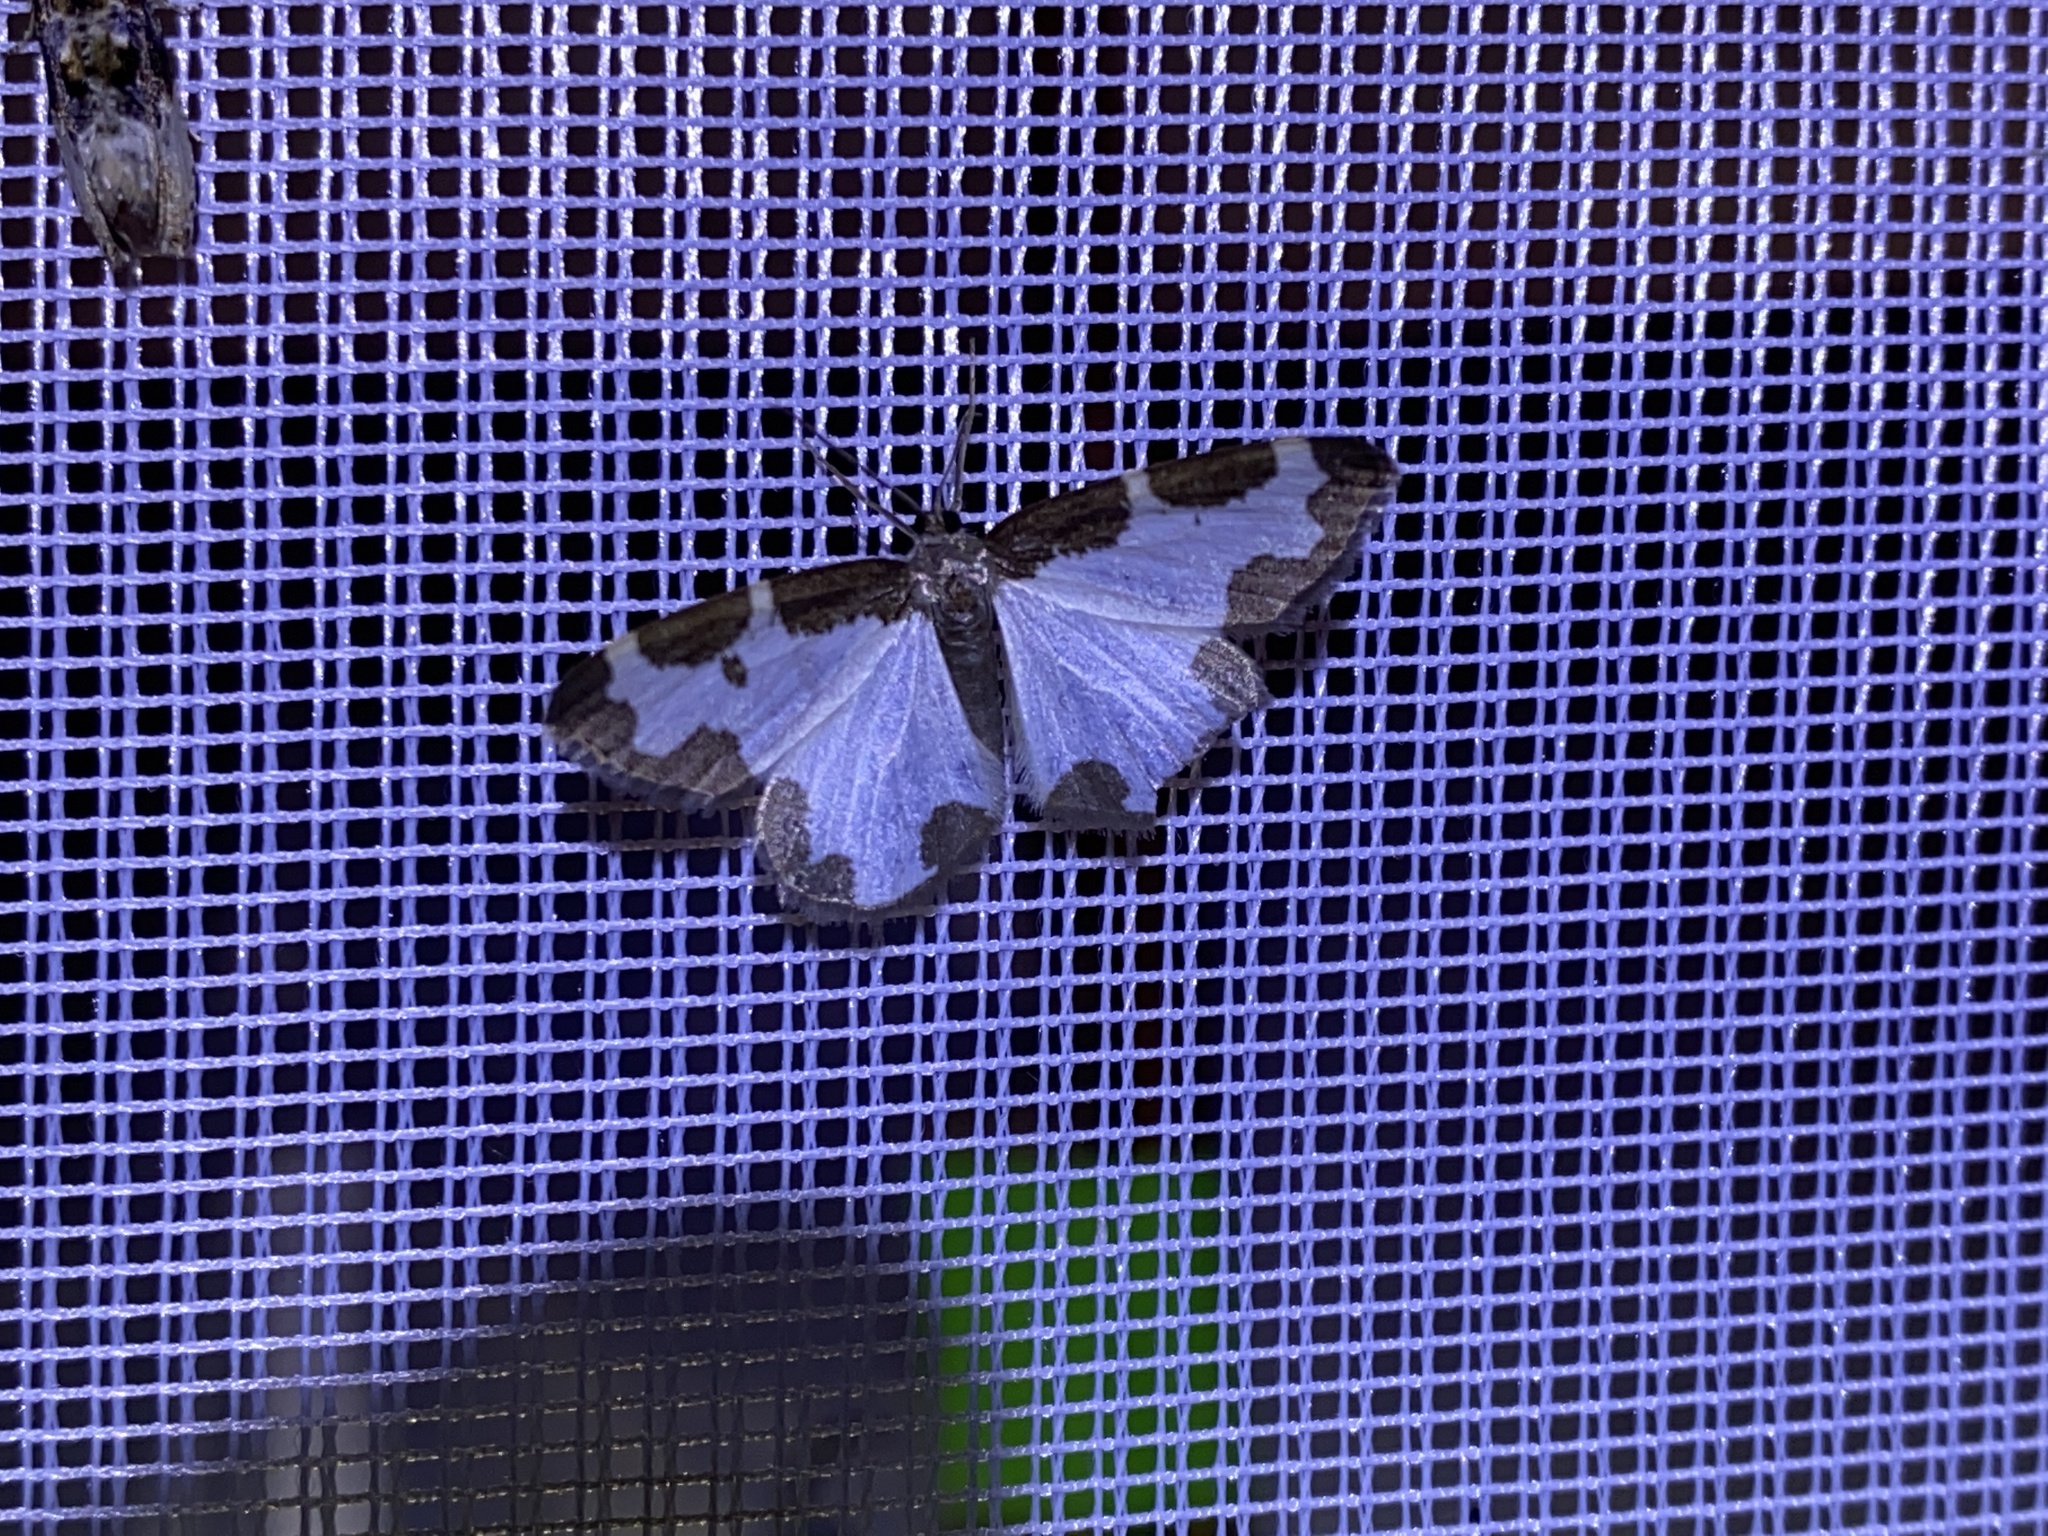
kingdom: Animalia
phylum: Arthropoda
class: Insecta
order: Lepidoptera
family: Geometridae
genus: Lomaspilis
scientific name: Lomaspilis marginata
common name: Clouded border
